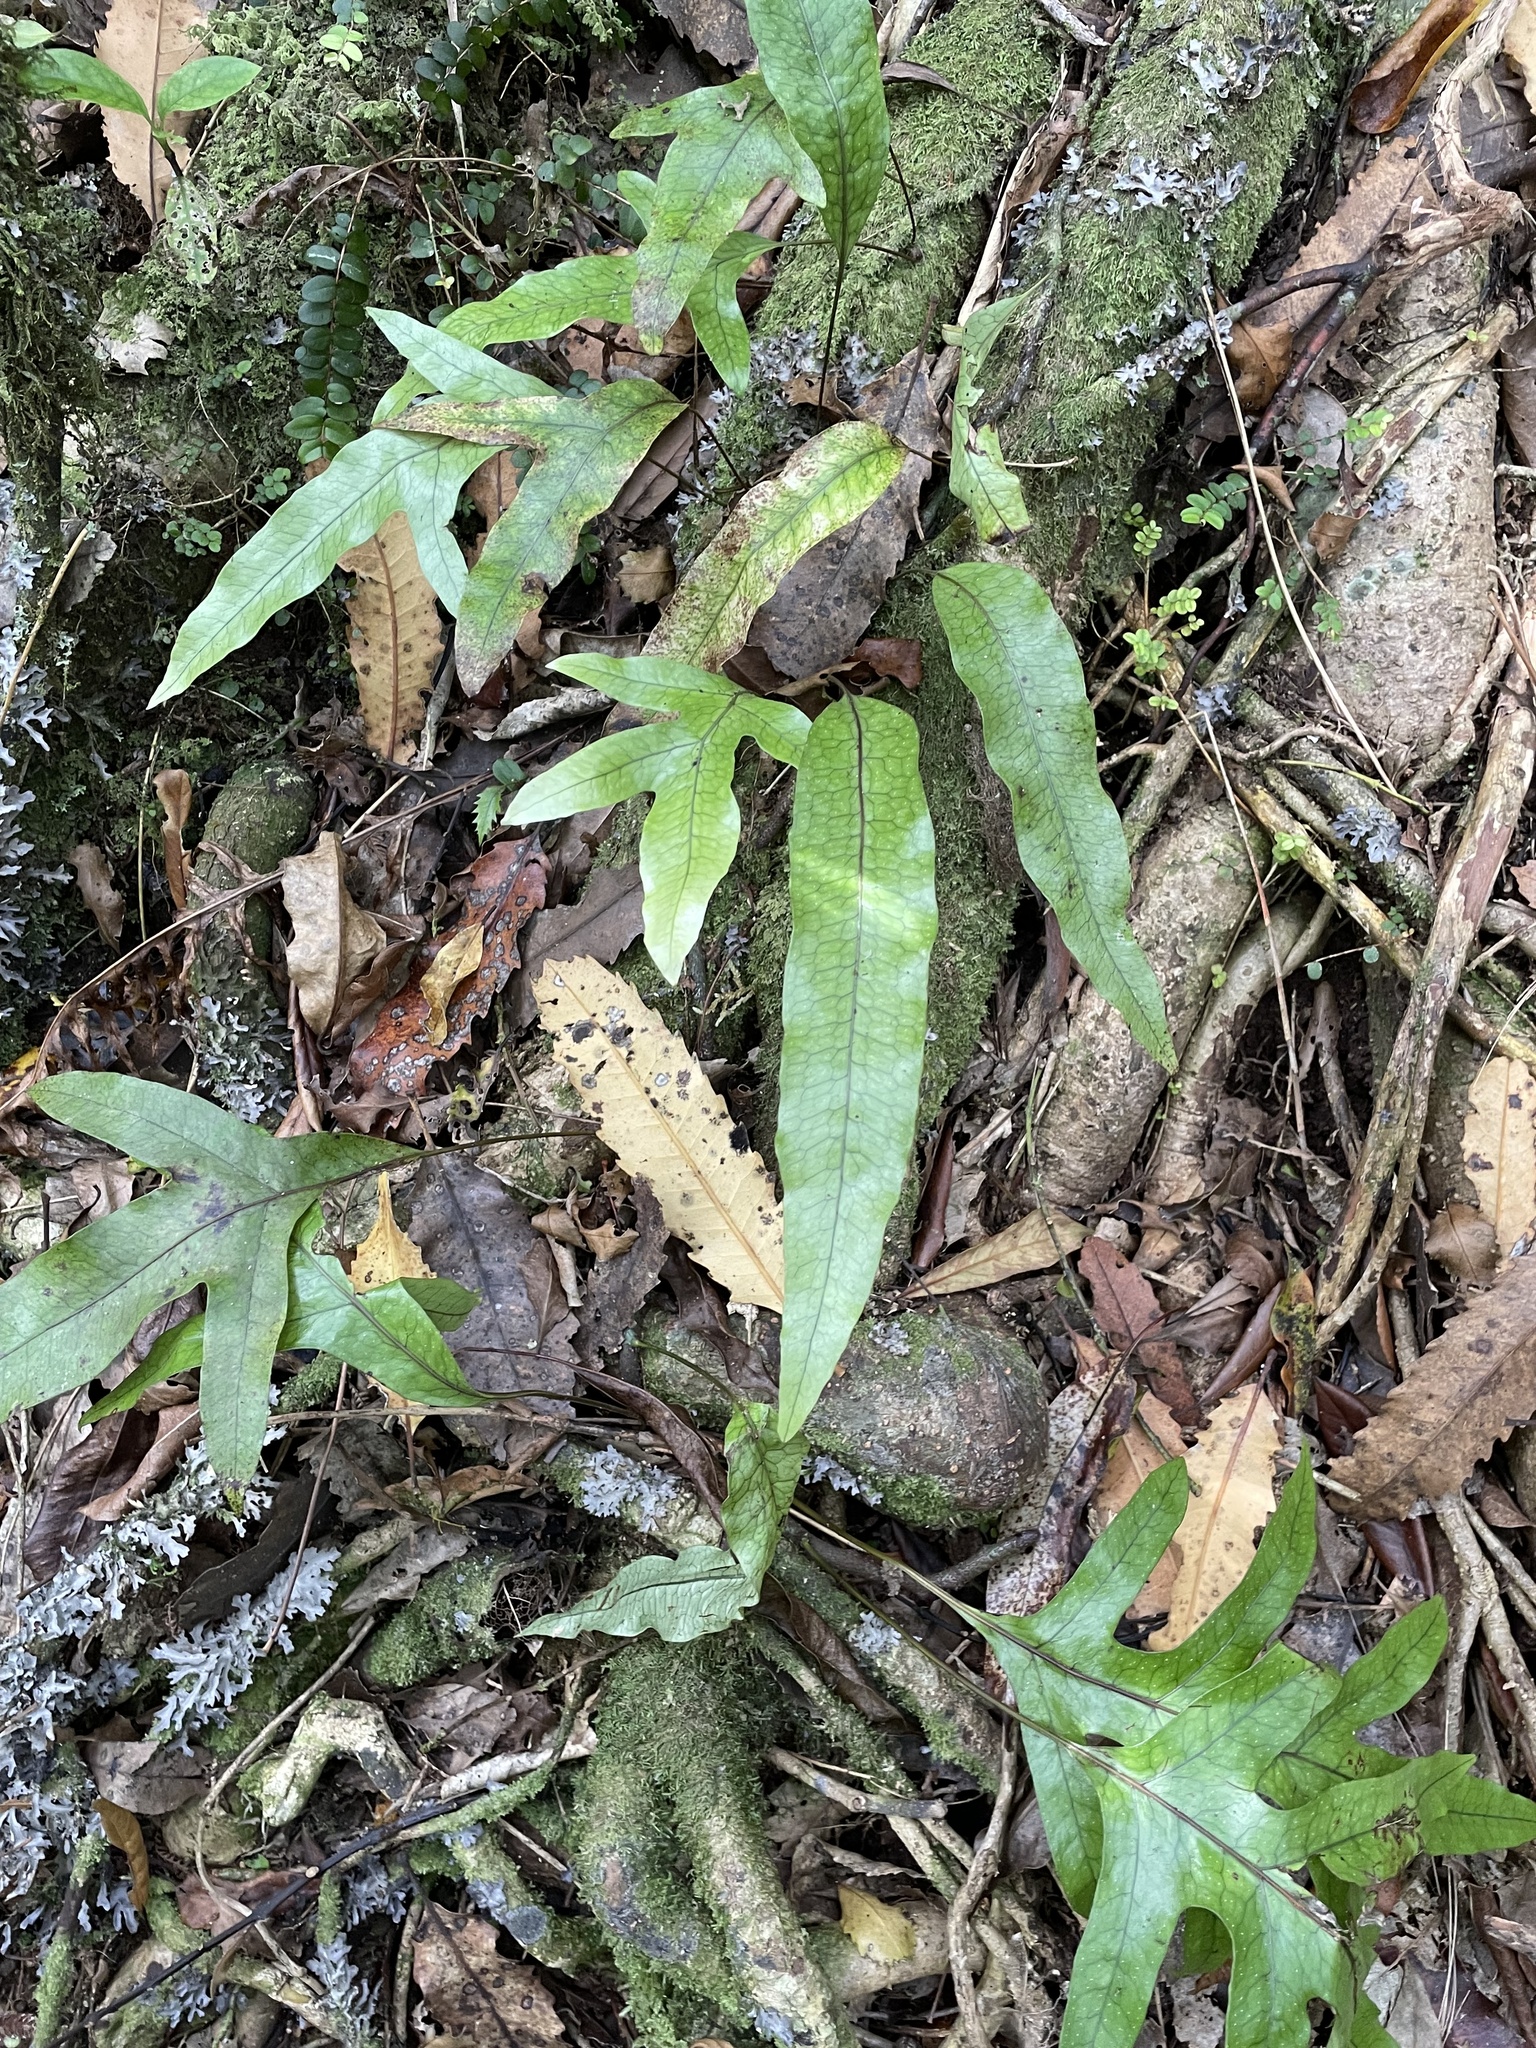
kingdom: Plantae
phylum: Tracheophyta
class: Polypodiopsida
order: Polypodiales
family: Polypodiaceae
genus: Lecanopteris
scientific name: Lecanopteris pustulata
